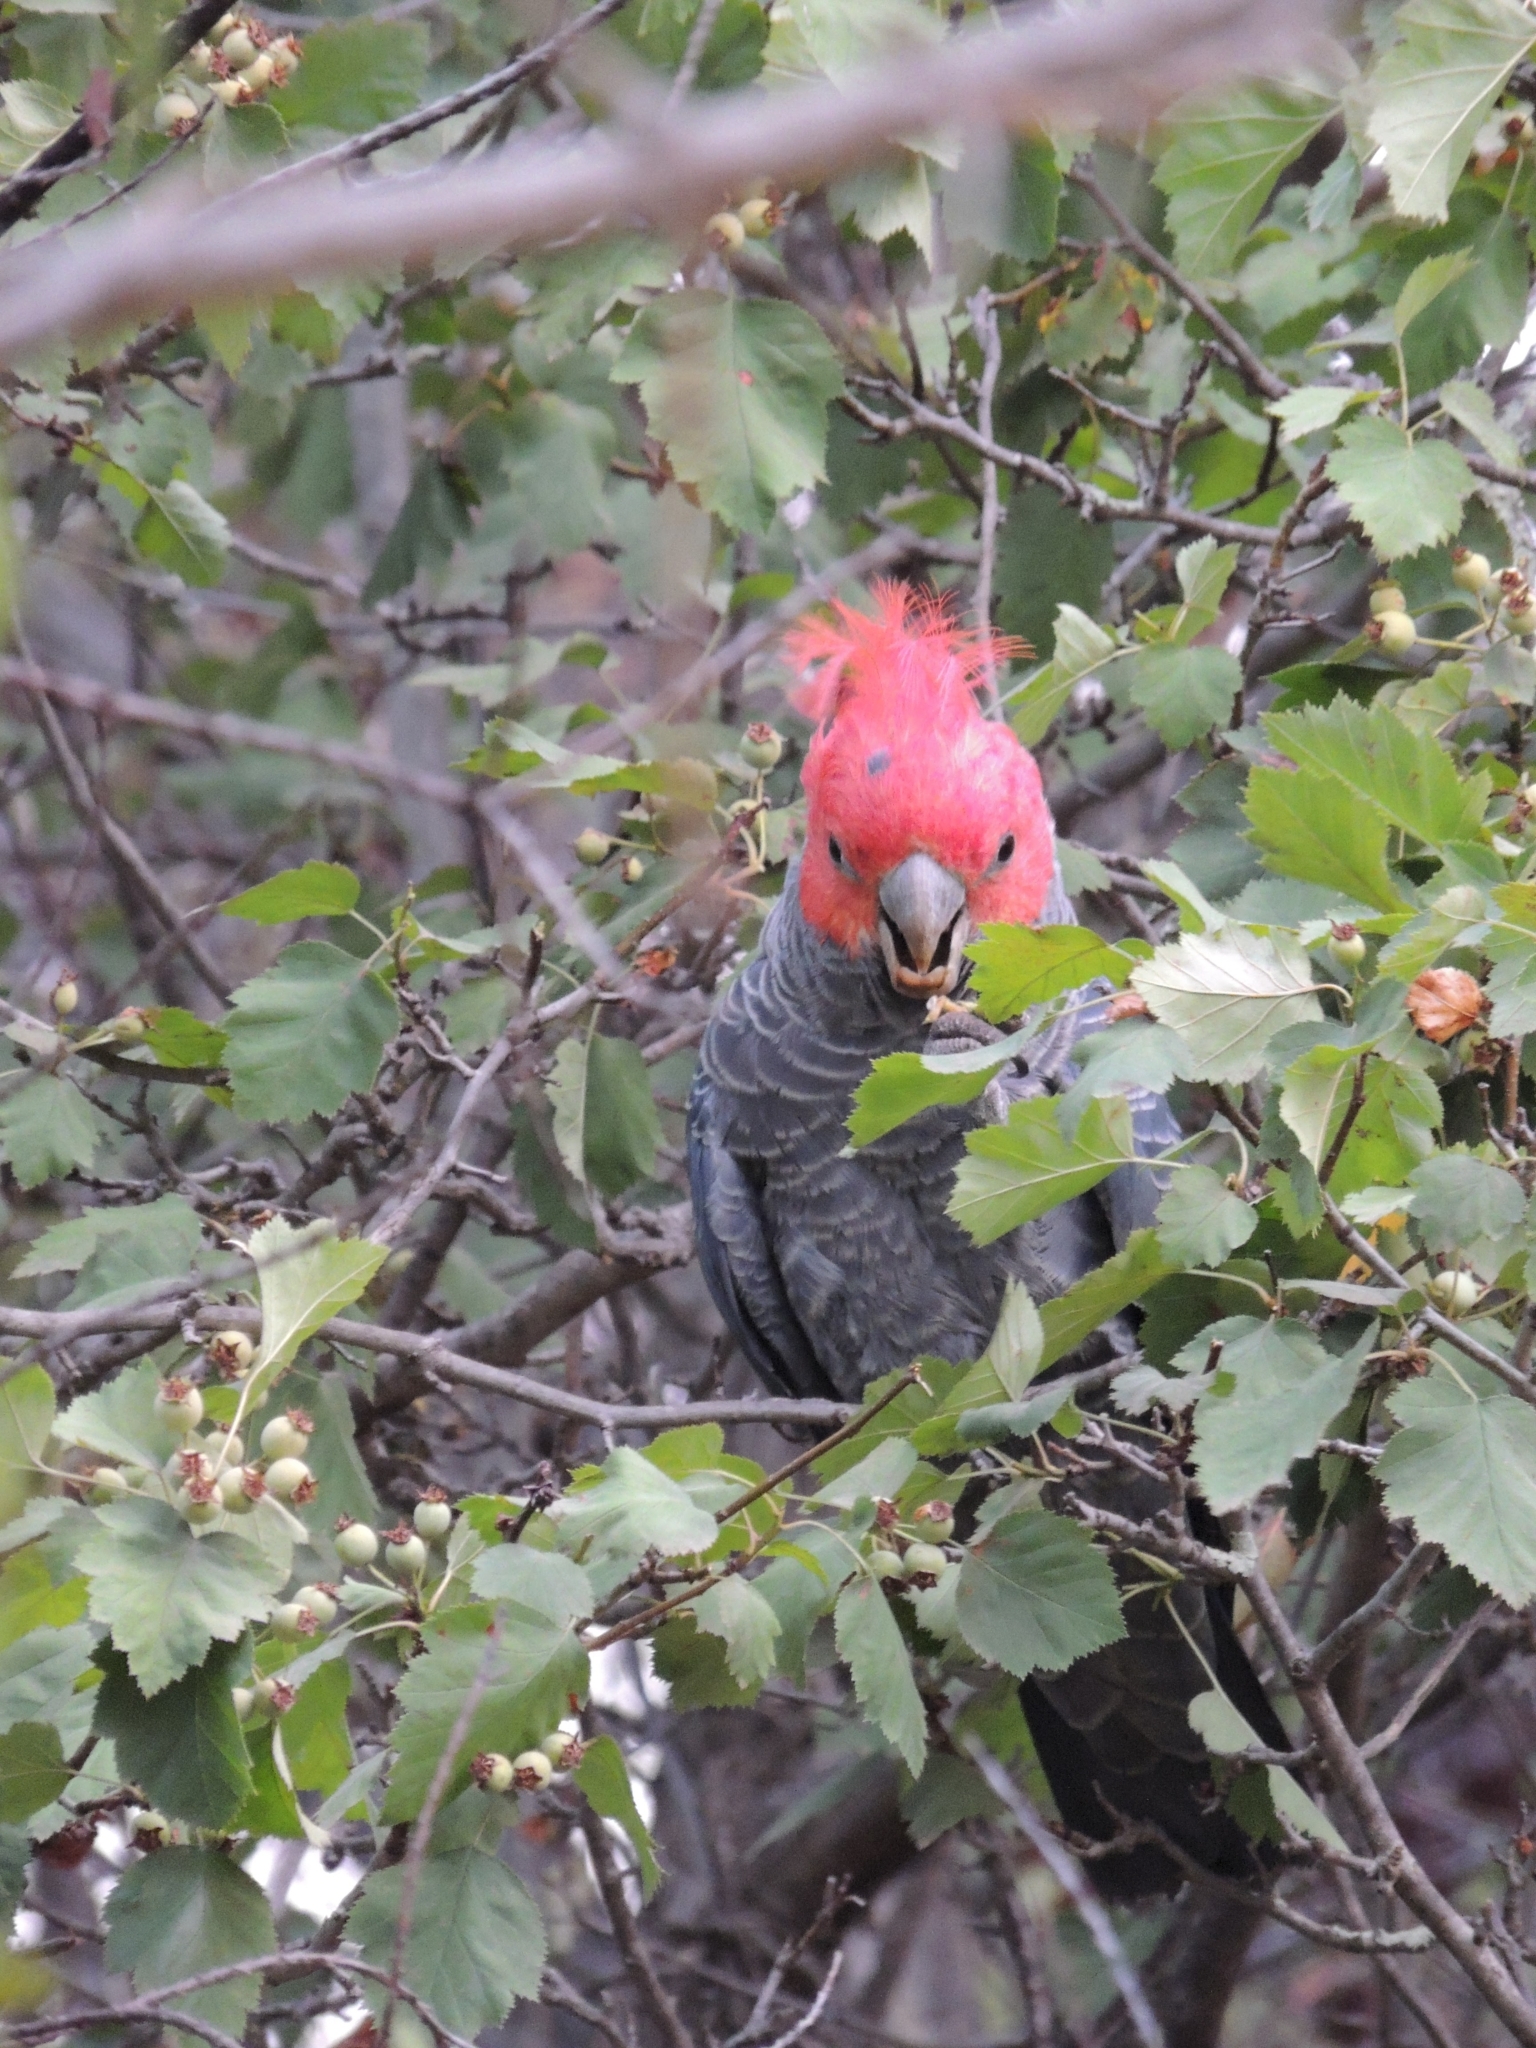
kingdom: Animalia
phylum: Chordata
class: Aves
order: Psittaciformes
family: Psittacidae
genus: Callocephalon
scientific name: Callocephalon fimbriatum
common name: Gang-gang cockatoo
